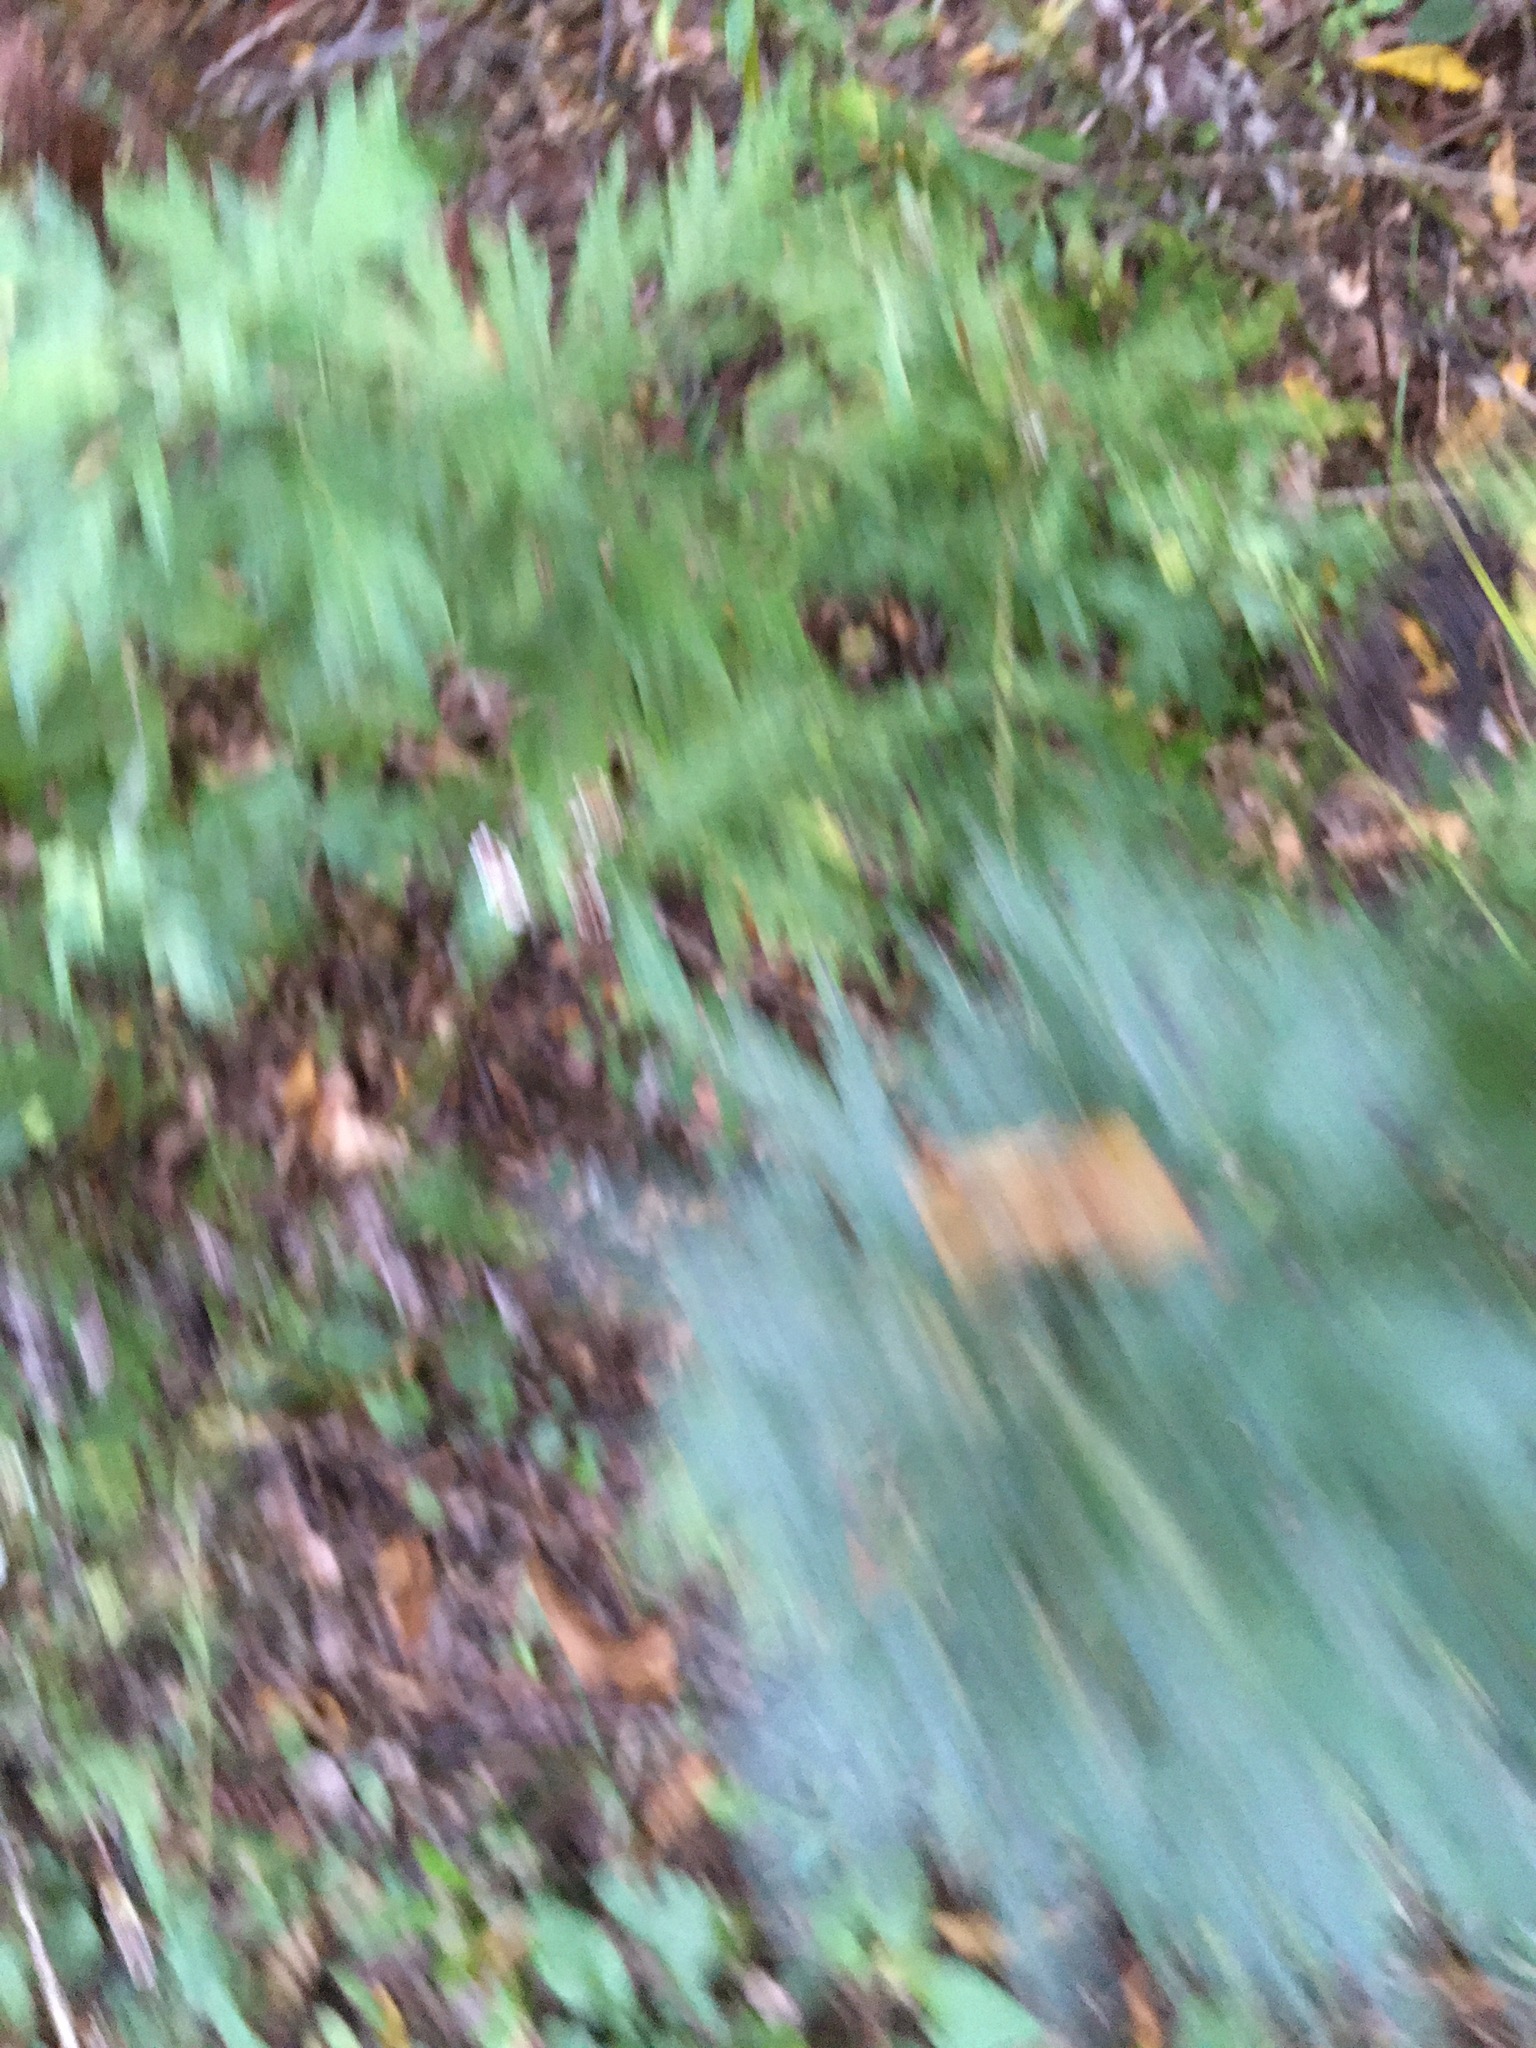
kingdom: Plantae
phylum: Tracheophyta
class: Magnoliopsida
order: Asterales
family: Asteraceae
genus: Artemisia
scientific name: Artemisia vulgaris
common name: Mugwort
